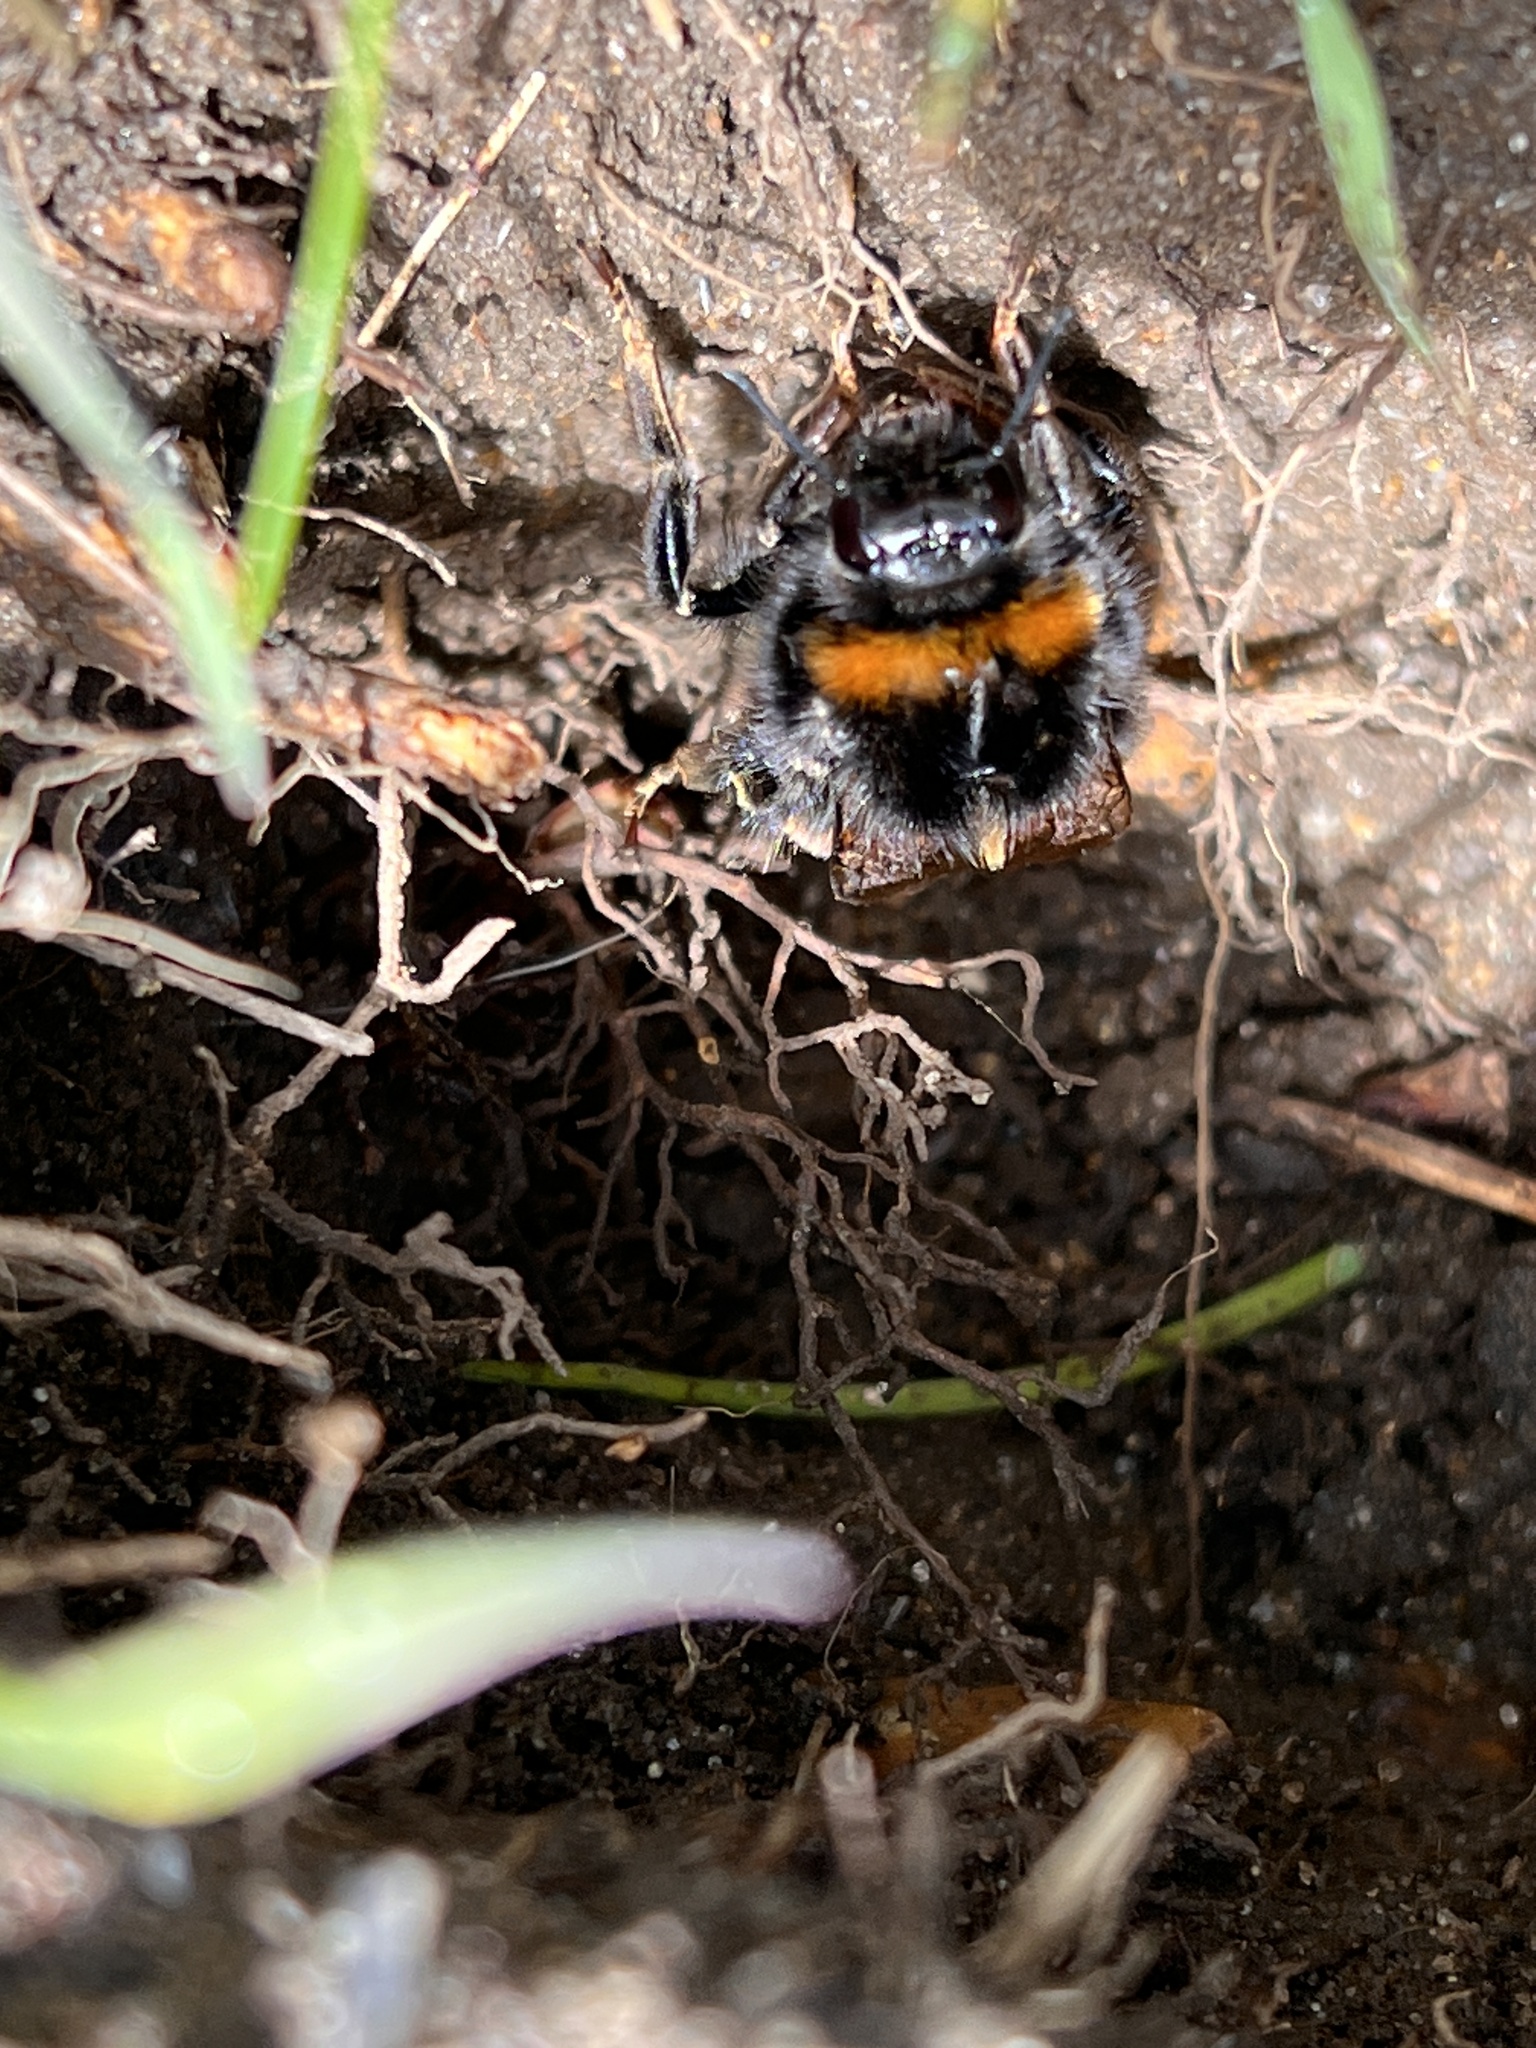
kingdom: Animalia
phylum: Arthropoda
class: Insecta
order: Hymenoptera
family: Apidae
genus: Bombus
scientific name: Bombus terrestris
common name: Buff-tailed bumblebee
